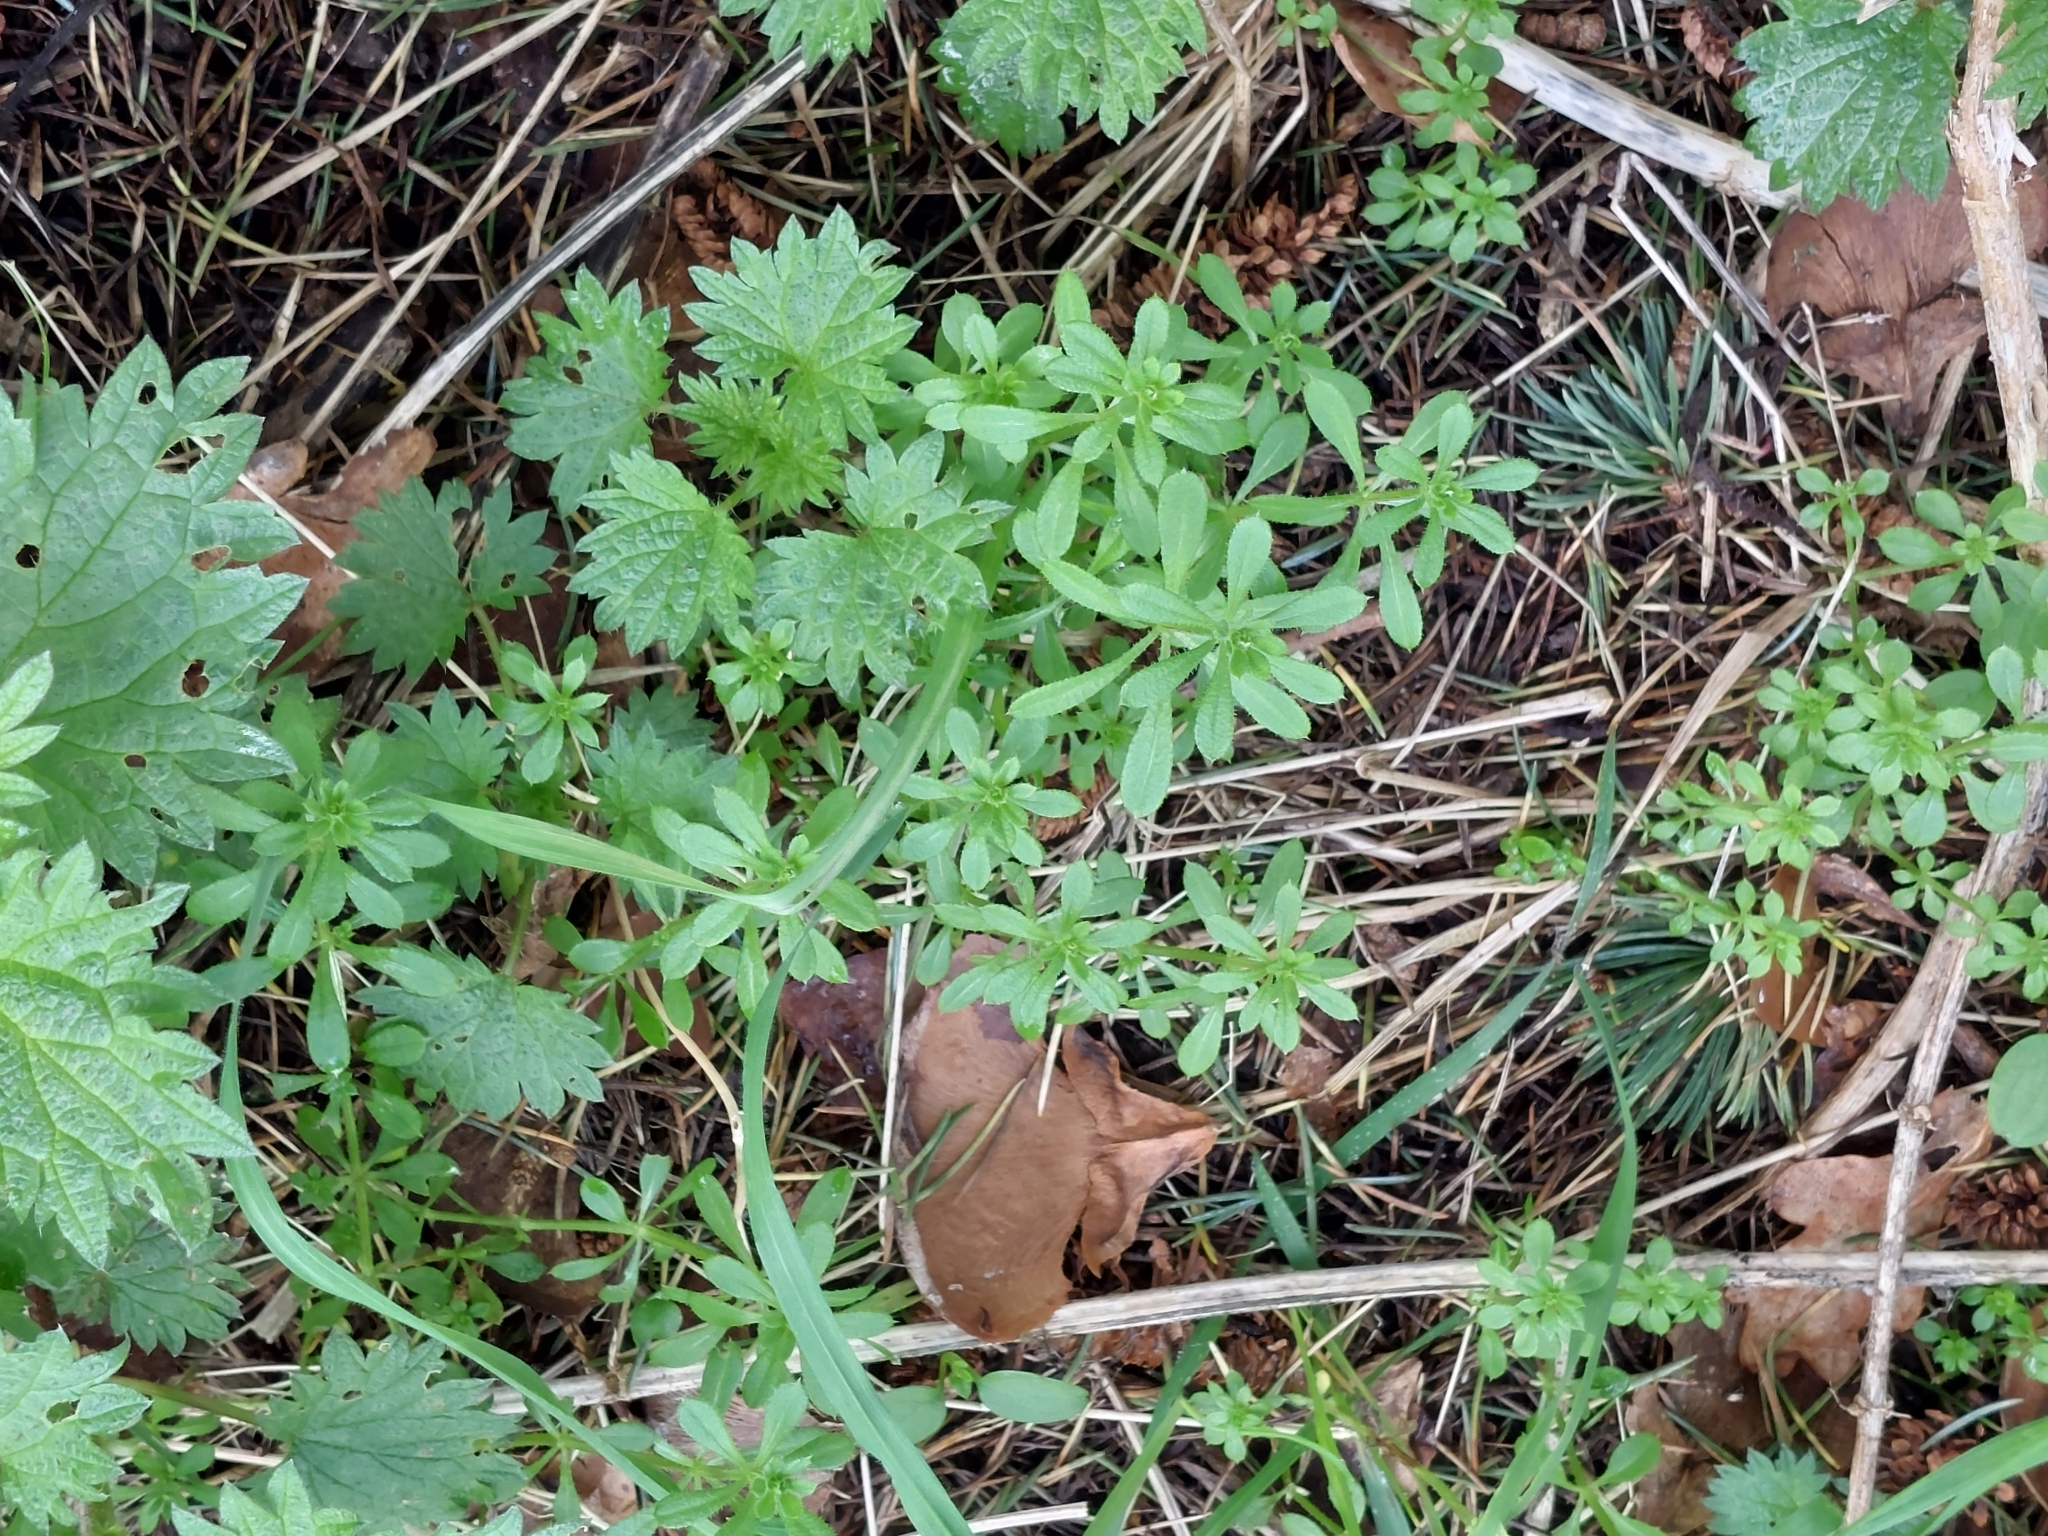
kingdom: Plantae
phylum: Tracheophyta
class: Magnoliopsida
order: Gentianales
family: Rubiaceae
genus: Galium
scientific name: Galium aparine
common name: Cleavers
